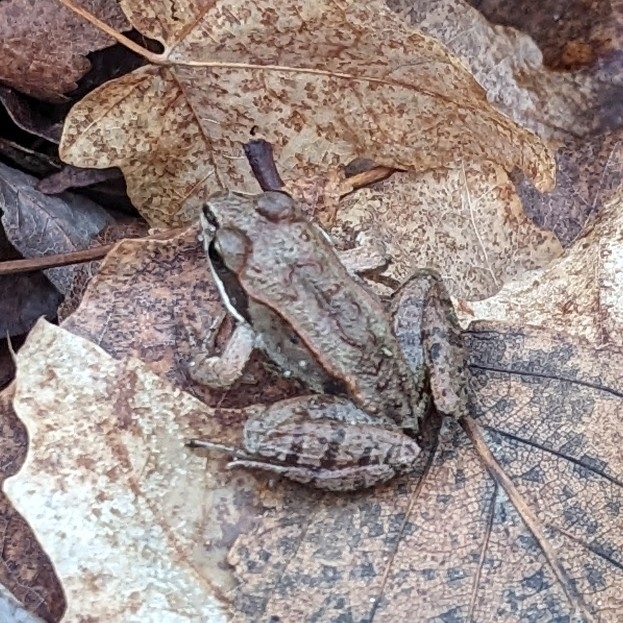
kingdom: Animalia
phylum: Chordata
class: Amphibia
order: Anura
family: Ranidae
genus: Lithobates
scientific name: Lithobates sylvaticus
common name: Wood frog
